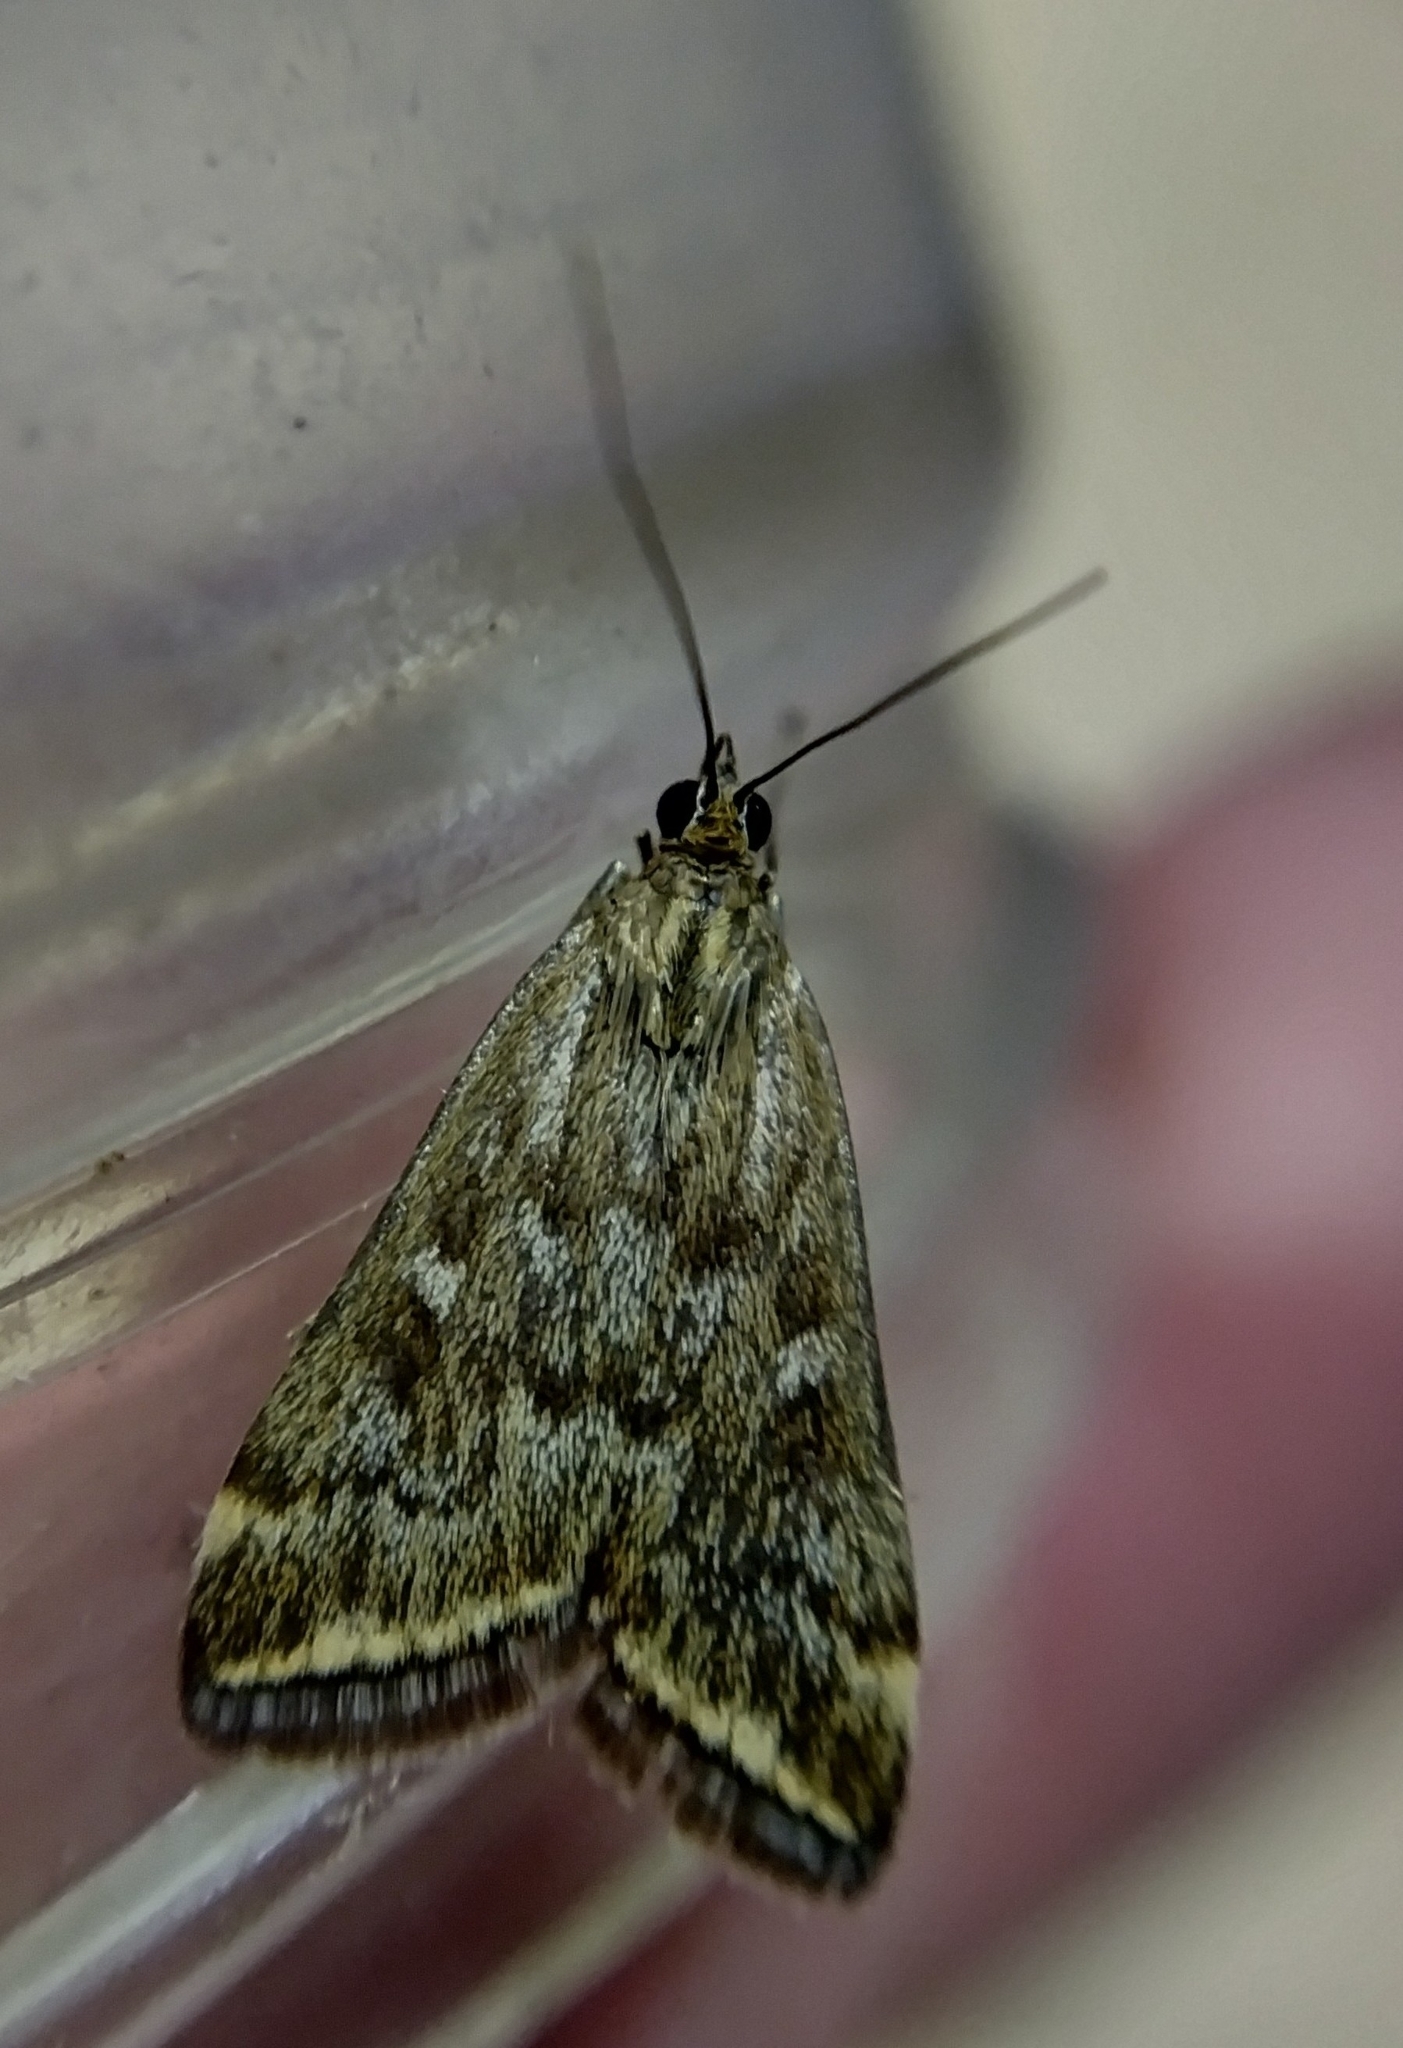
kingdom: Animalia
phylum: Arthropoda
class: Insecta
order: Lepidoptera
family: Crambidae
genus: Loxostege
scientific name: Loxostege sticticalis
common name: Crambid moth
